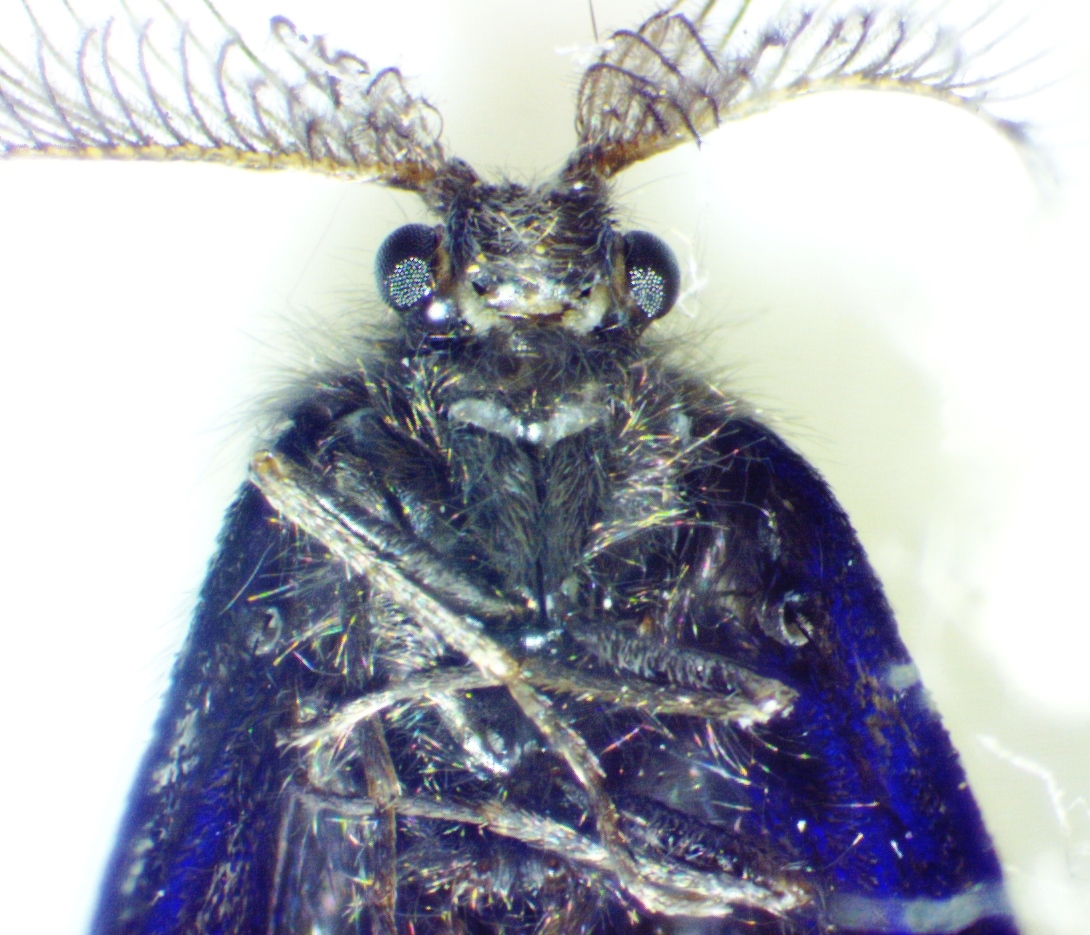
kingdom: Animalia
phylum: Arthropoda
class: Insecta
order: Lepidoptera
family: Psychidae
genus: Astala
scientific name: Astala confederata
